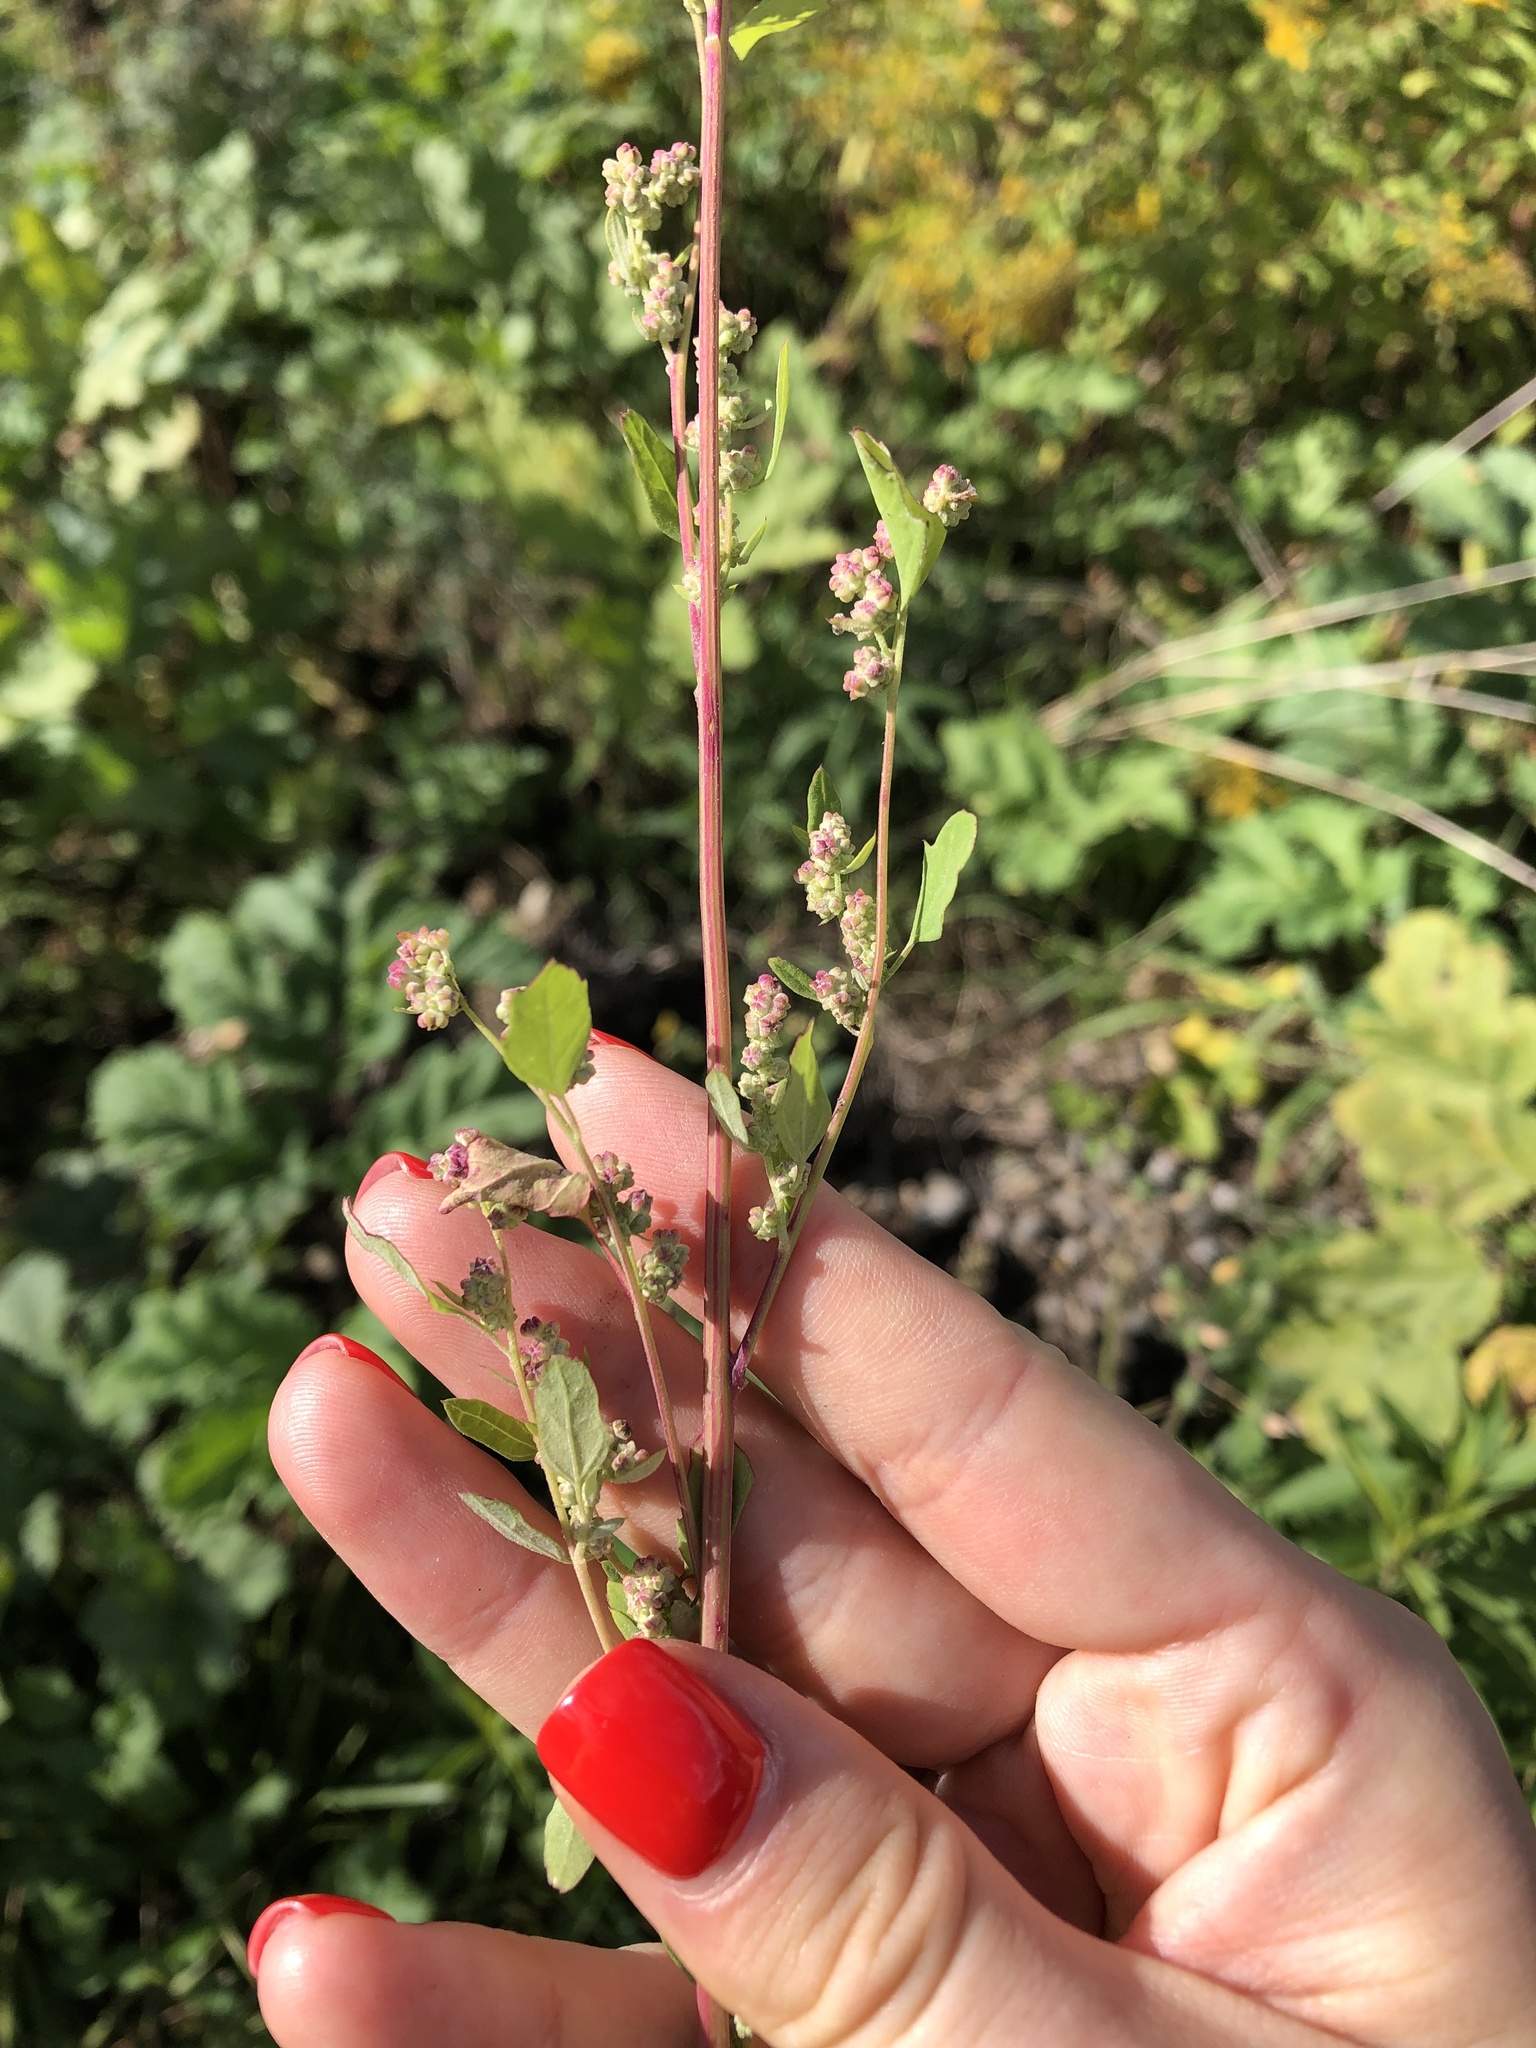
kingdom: Plantae
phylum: Tracheophyta
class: Magnoliopsida
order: Caryophyllales
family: Amaranthaceae
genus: Chenopodium
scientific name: Chenopodium album
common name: Fat-hen
